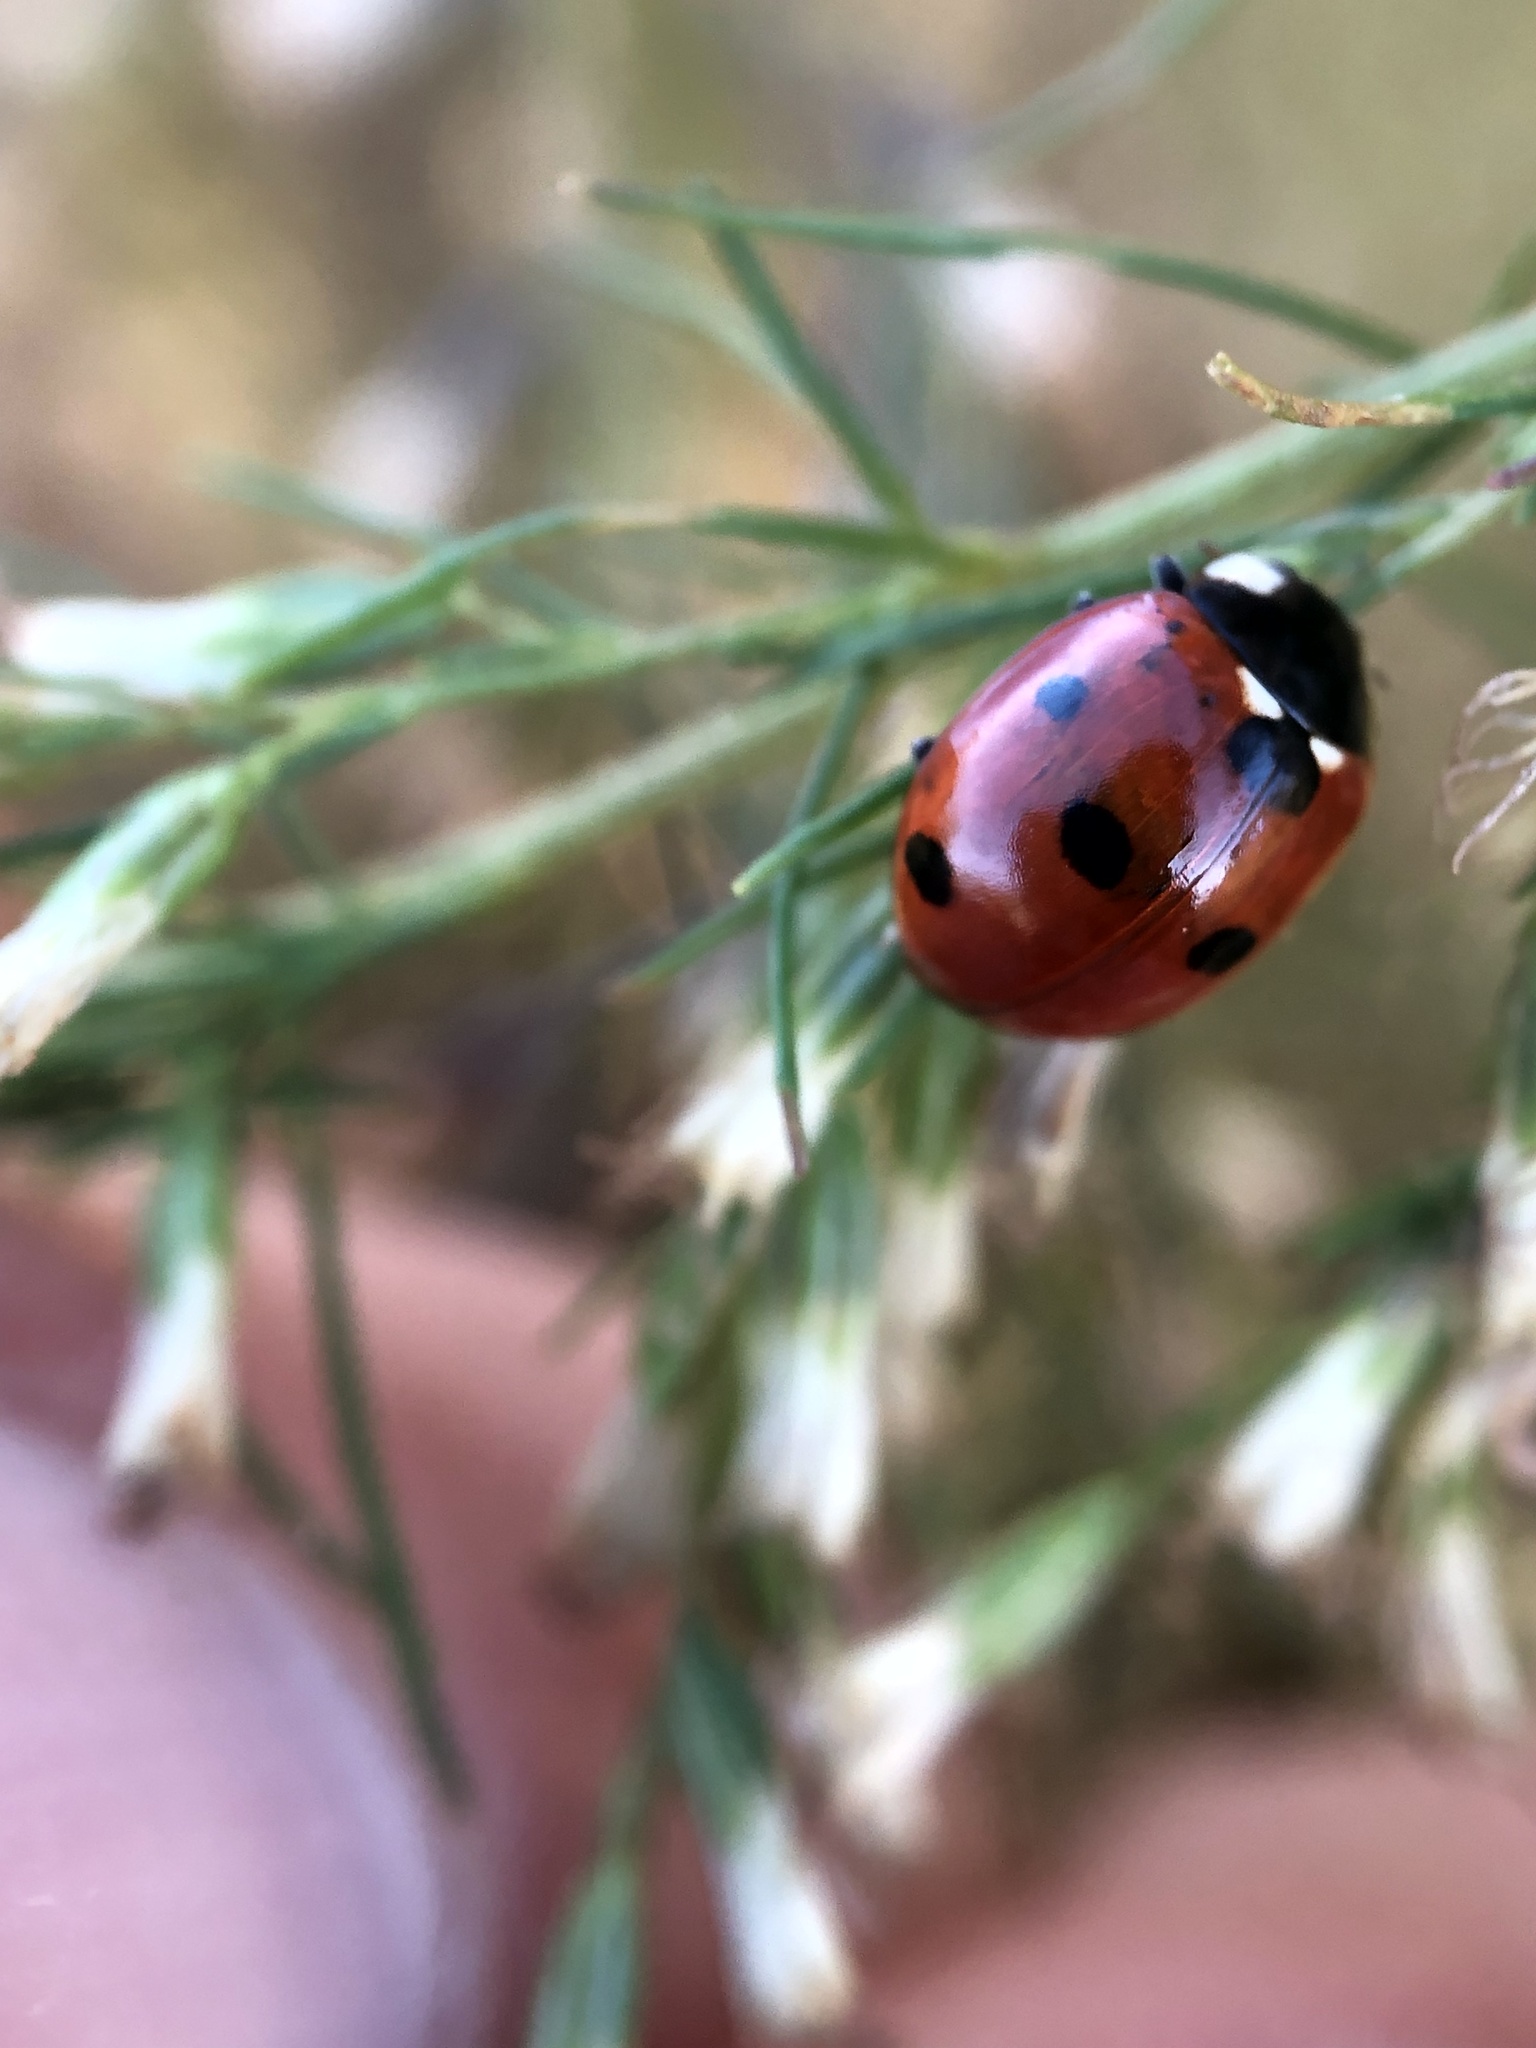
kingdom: Animalia
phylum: Arthropoda
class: Insecta
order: Coleoptera
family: Coccinellidae
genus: Coccinella
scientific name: Coccinella septempunctata
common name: Sevenspotted lady beetle
